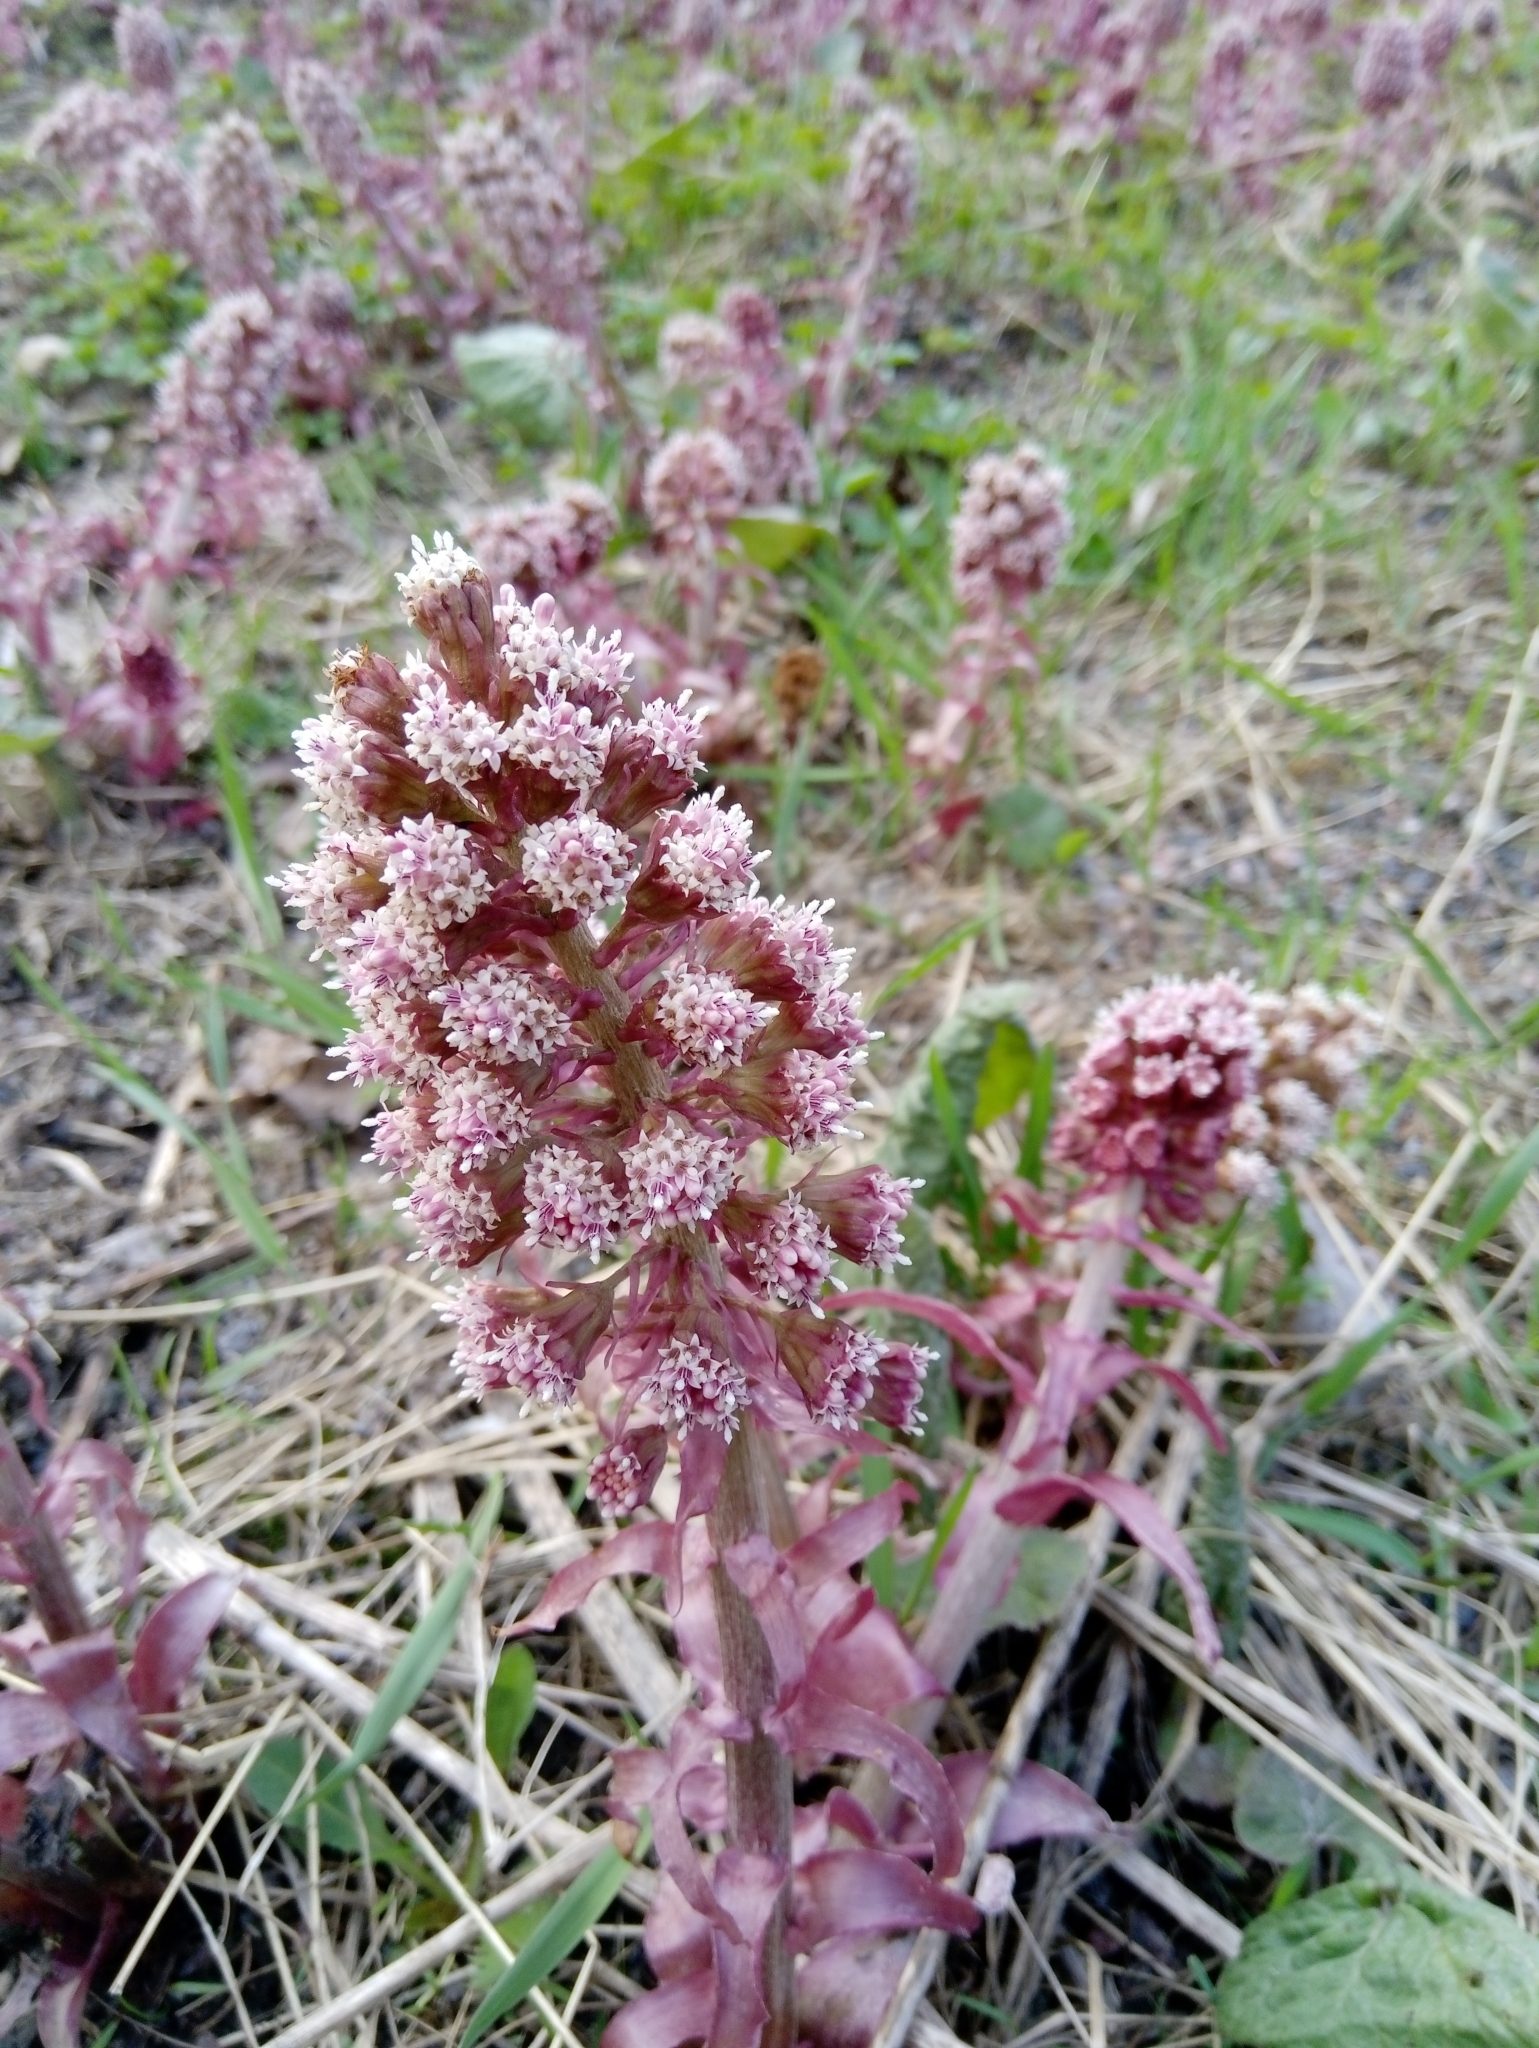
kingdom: Plantae
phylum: Tracheophyta
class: Magnoliopsida
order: Asterales
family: Asteraceae
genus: Petasites
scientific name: Petasites hybridus
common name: Butterbur
